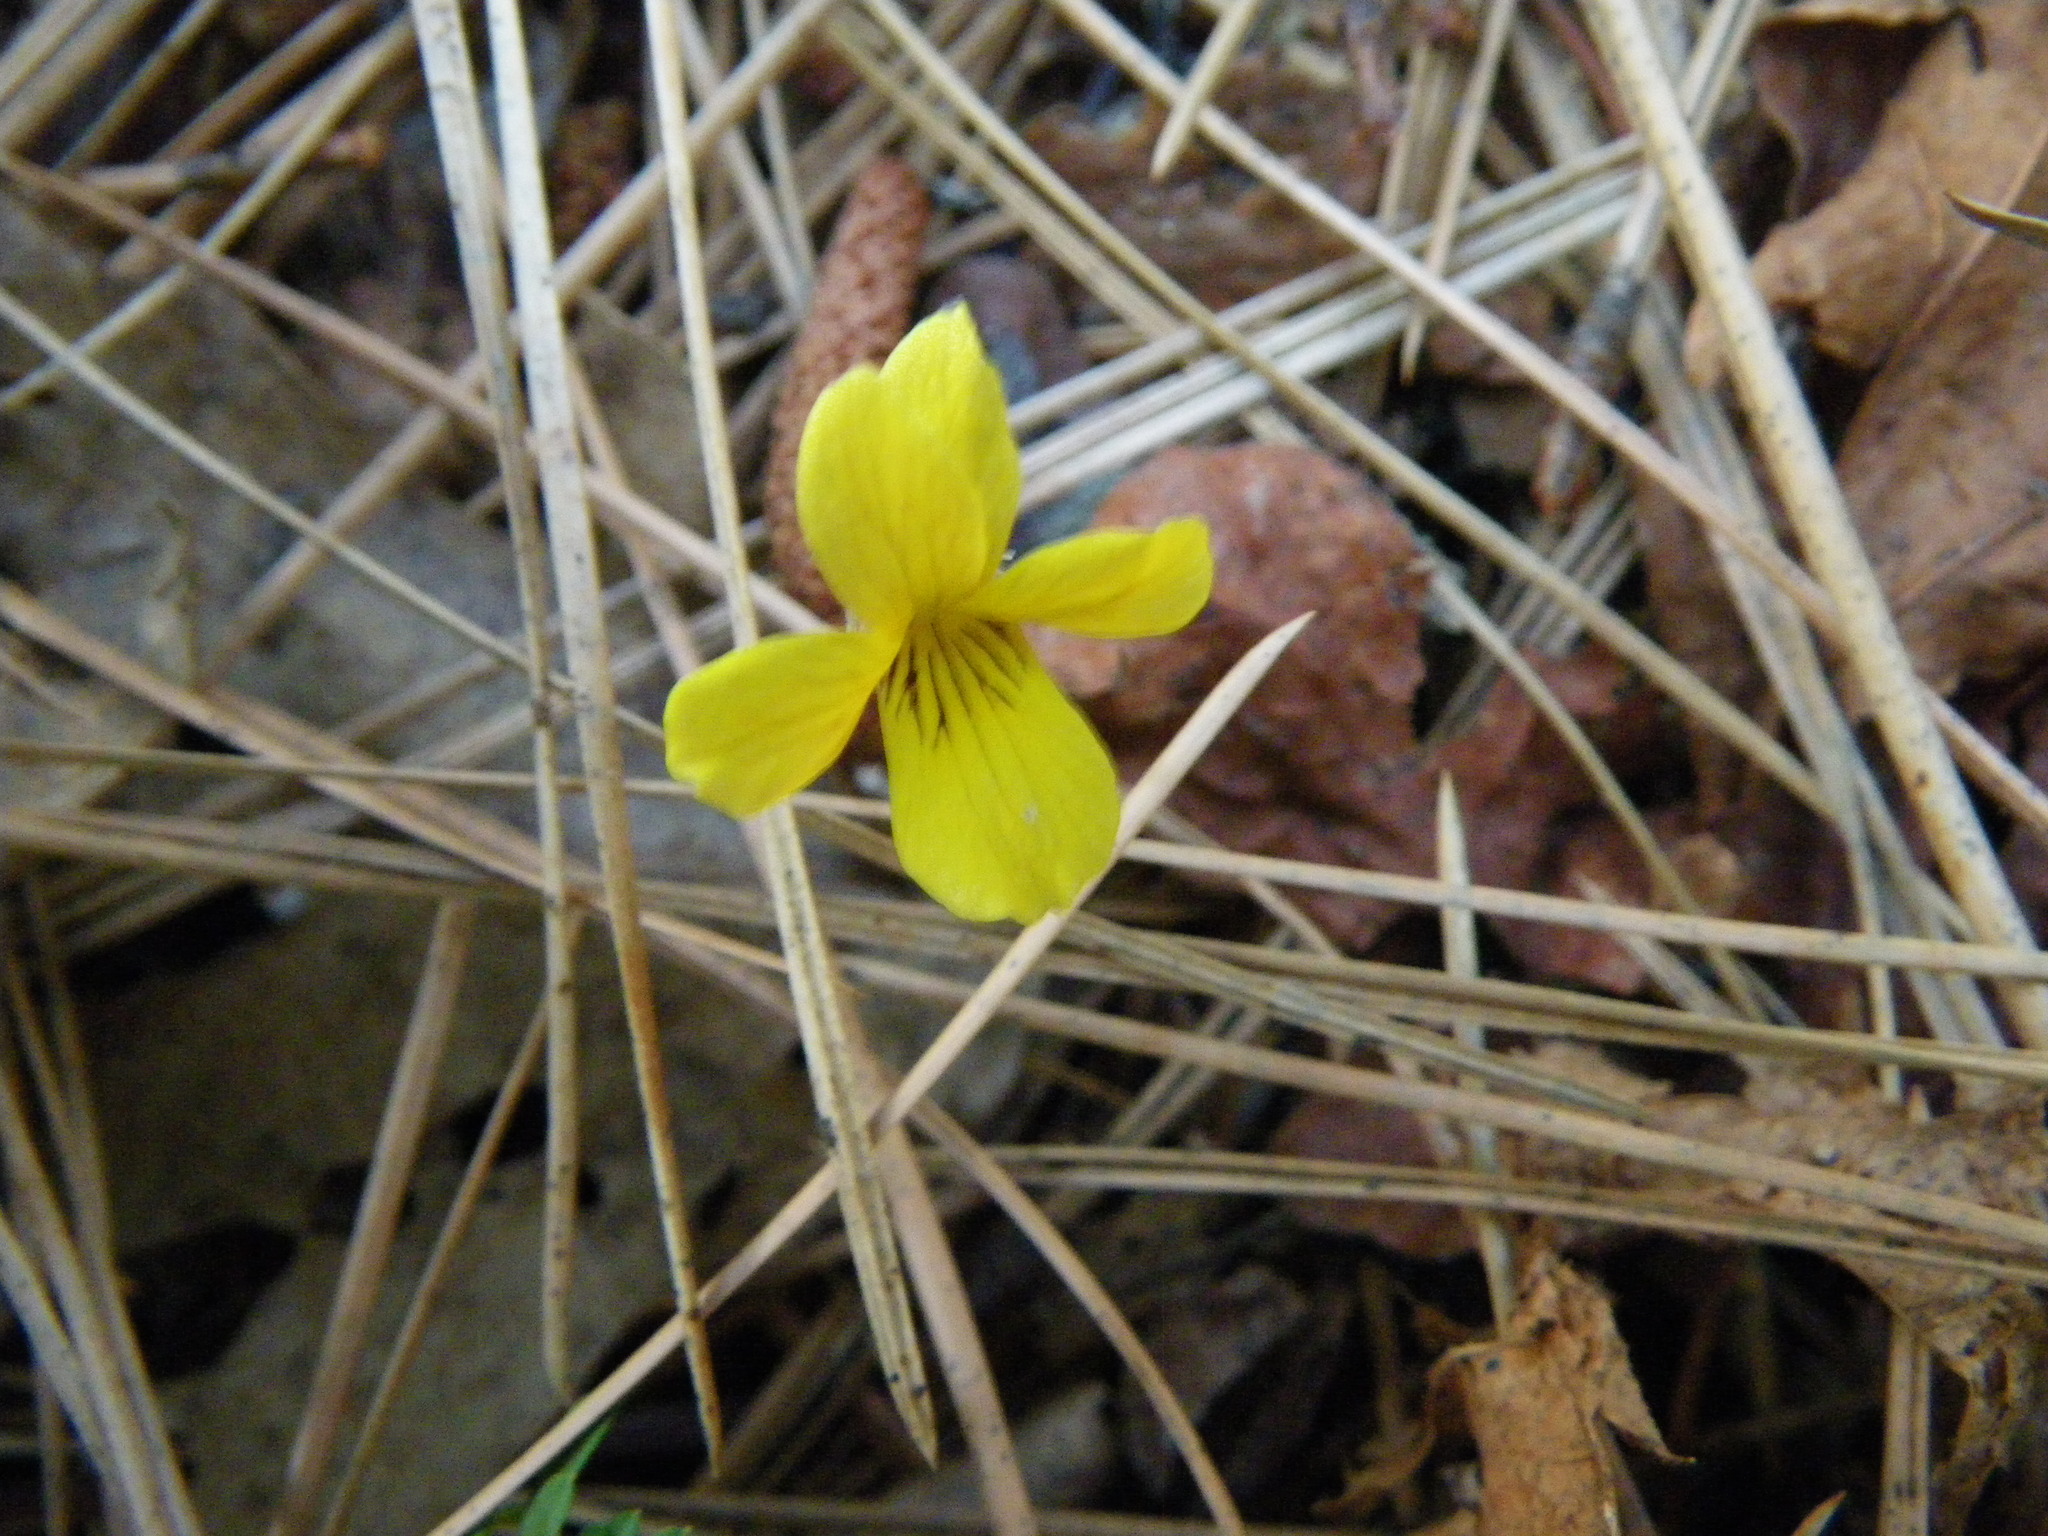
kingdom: Plantae
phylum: Tracheophyta
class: Magnoliopsida
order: Malpighiales
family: Violaceae
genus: Viola
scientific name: Viola sheltonii
